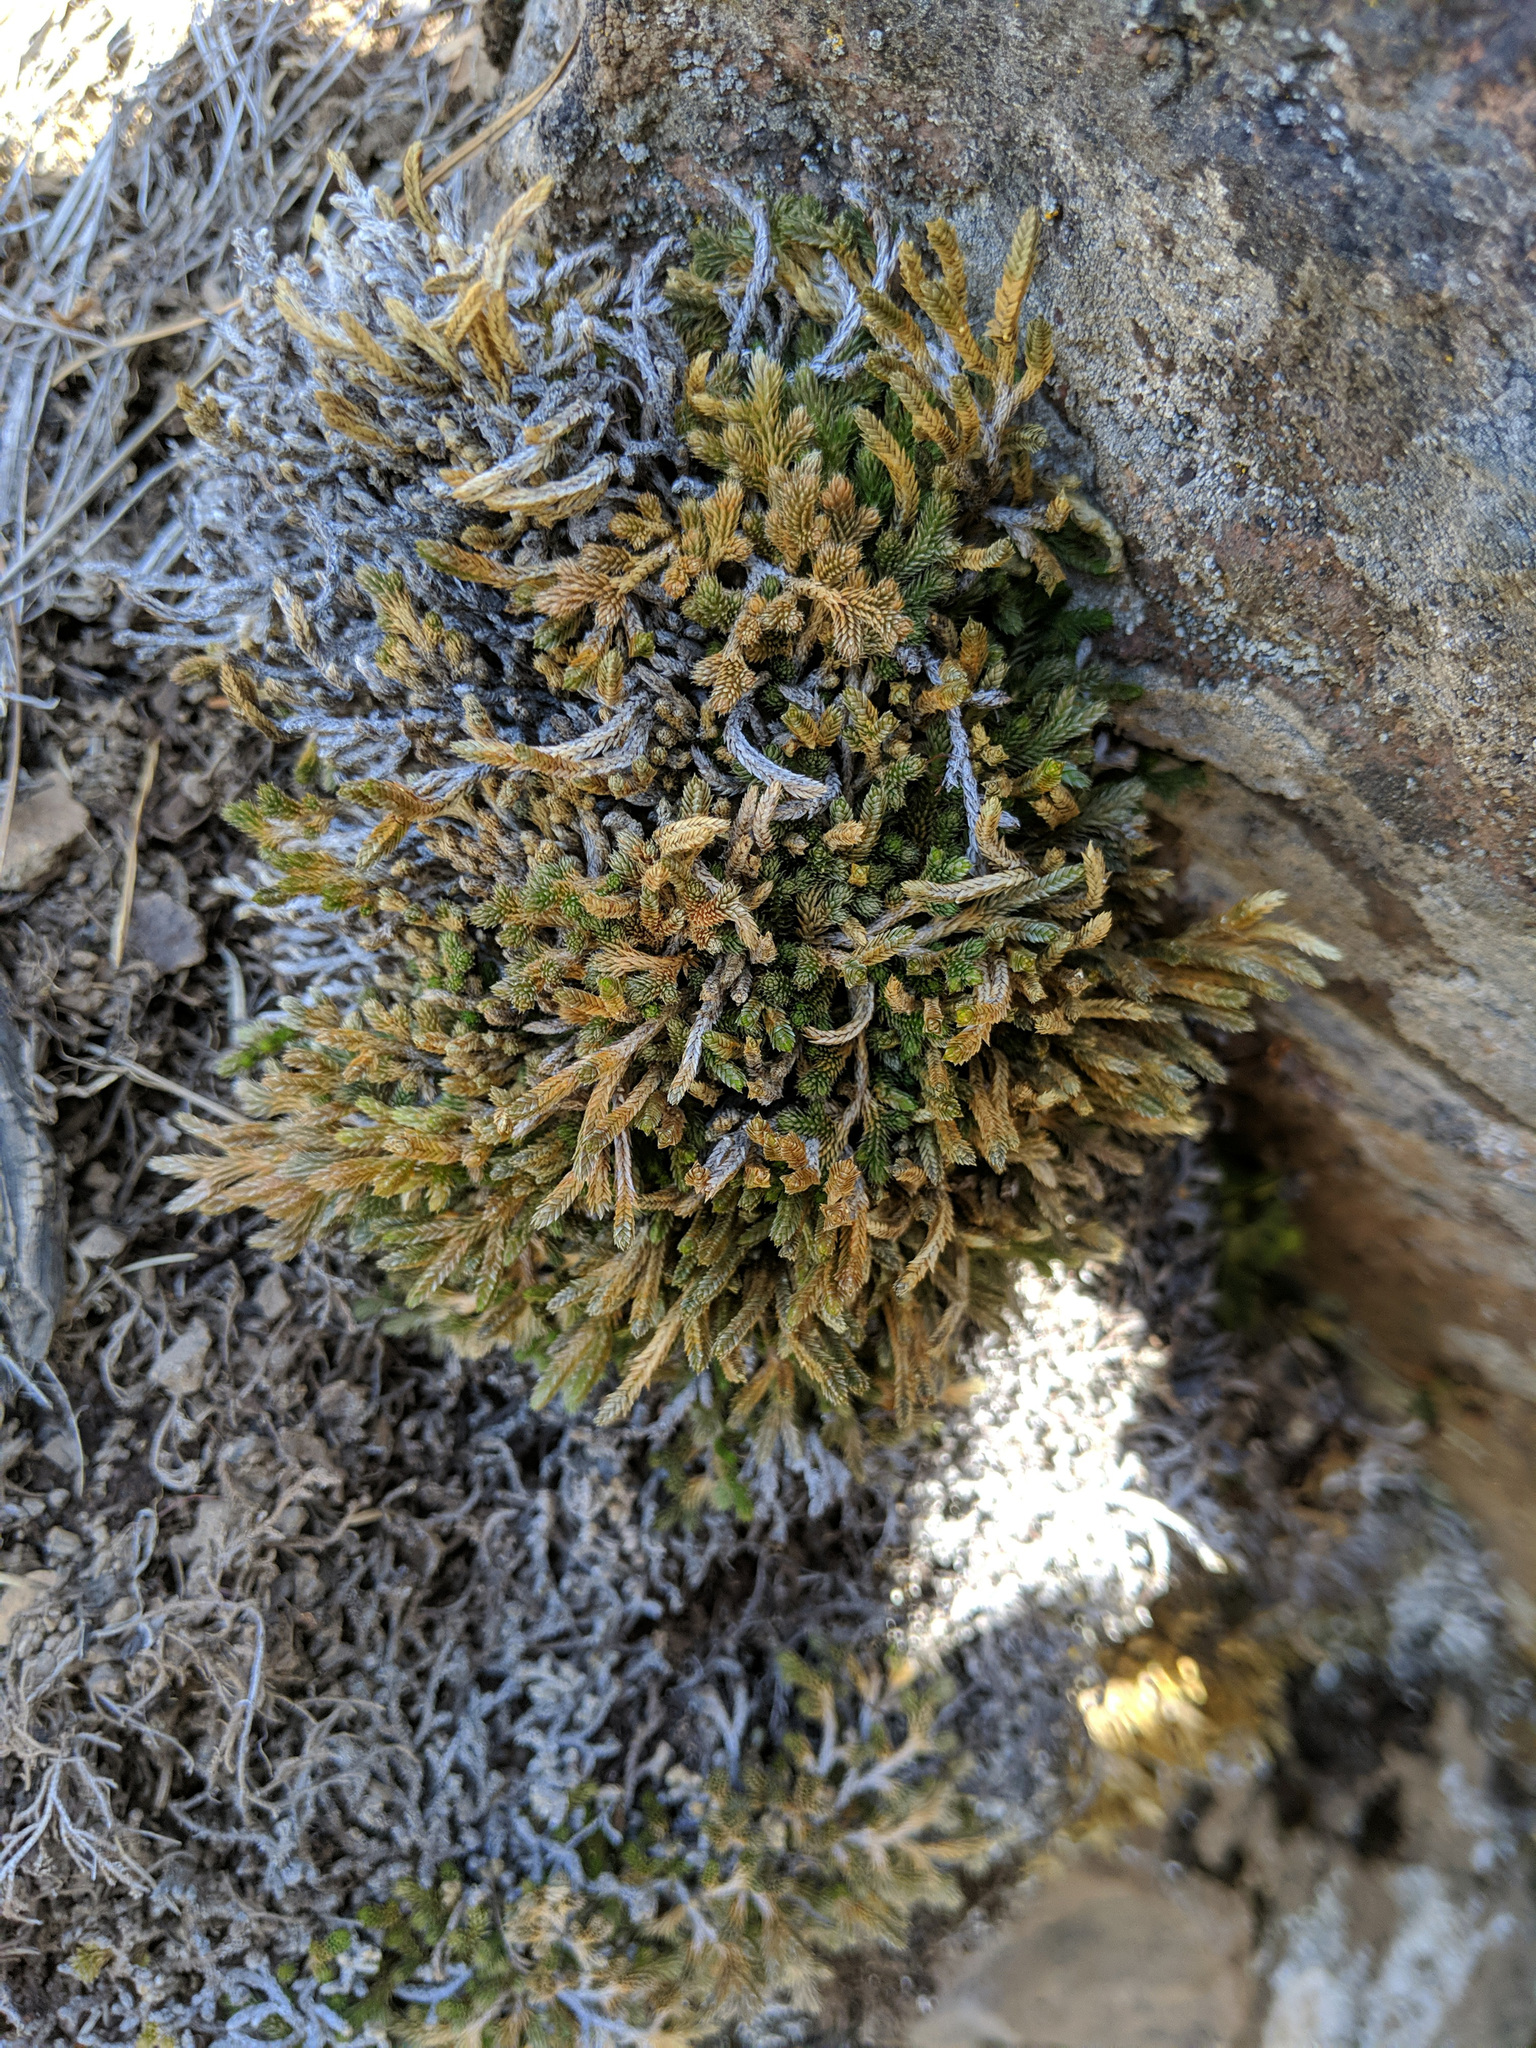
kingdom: Plantae
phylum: Tracheophyta
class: Lycopodiopsida
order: Selaginellales
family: Selaginellaceae
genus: Selaginella
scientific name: Selaginella wallacei
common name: Wallace's selaginella
